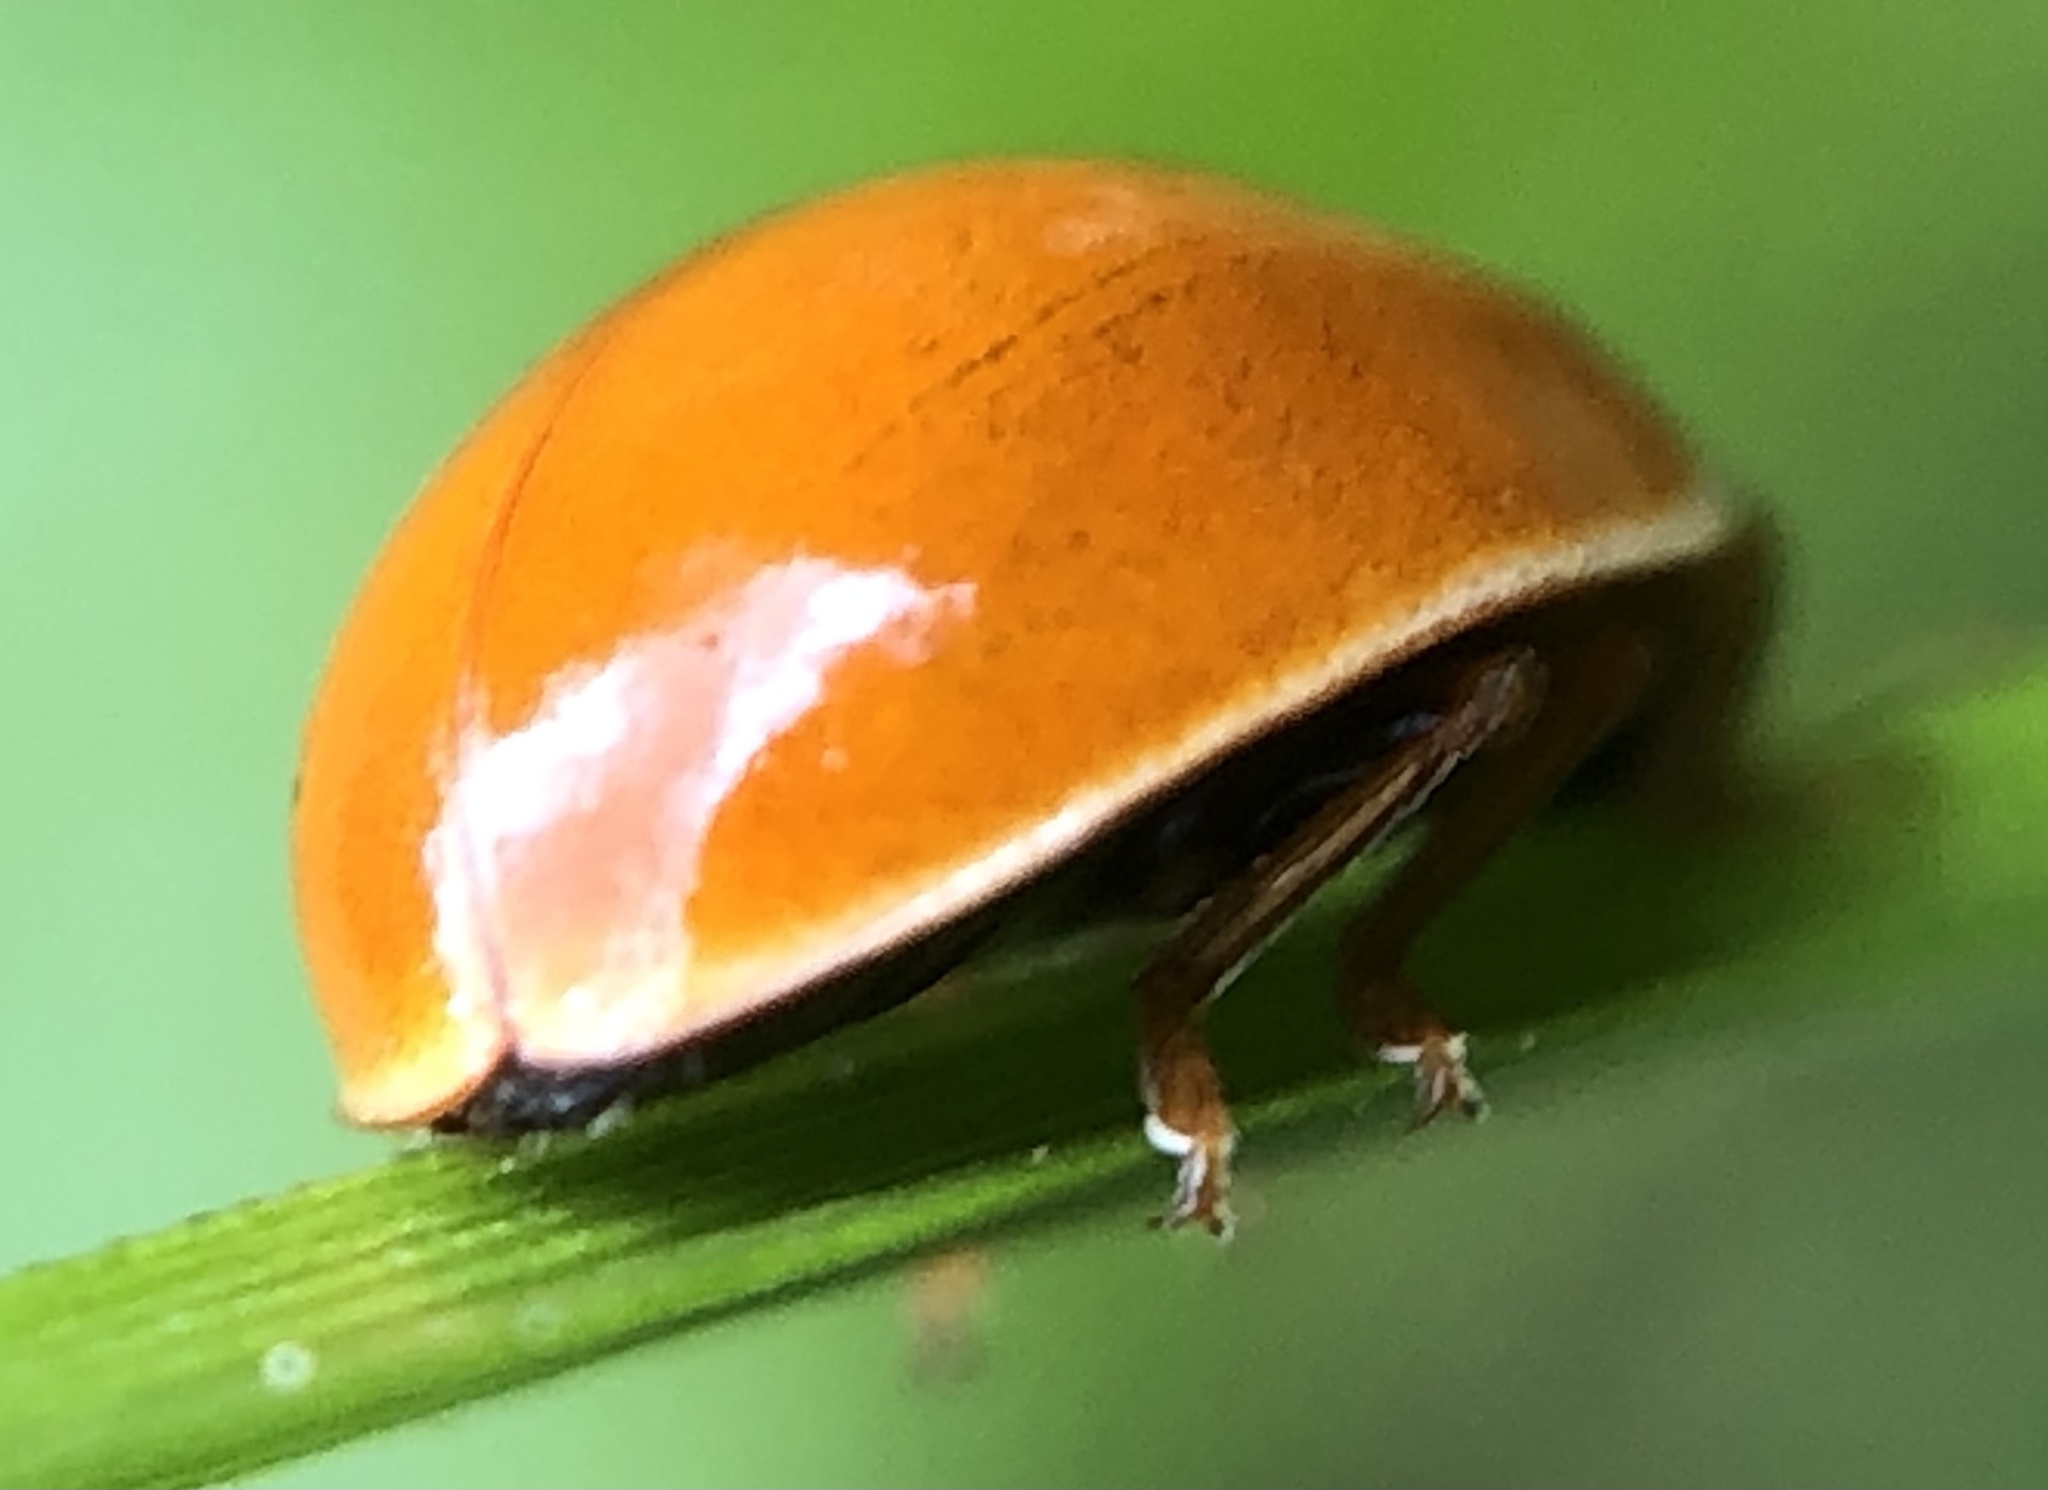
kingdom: Animalia
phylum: Arthropoda
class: Insecta
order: Coleoptera
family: Coccinellidae
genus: Cycloneda
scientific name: Cycloneda munda
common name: Polished lady beetle
